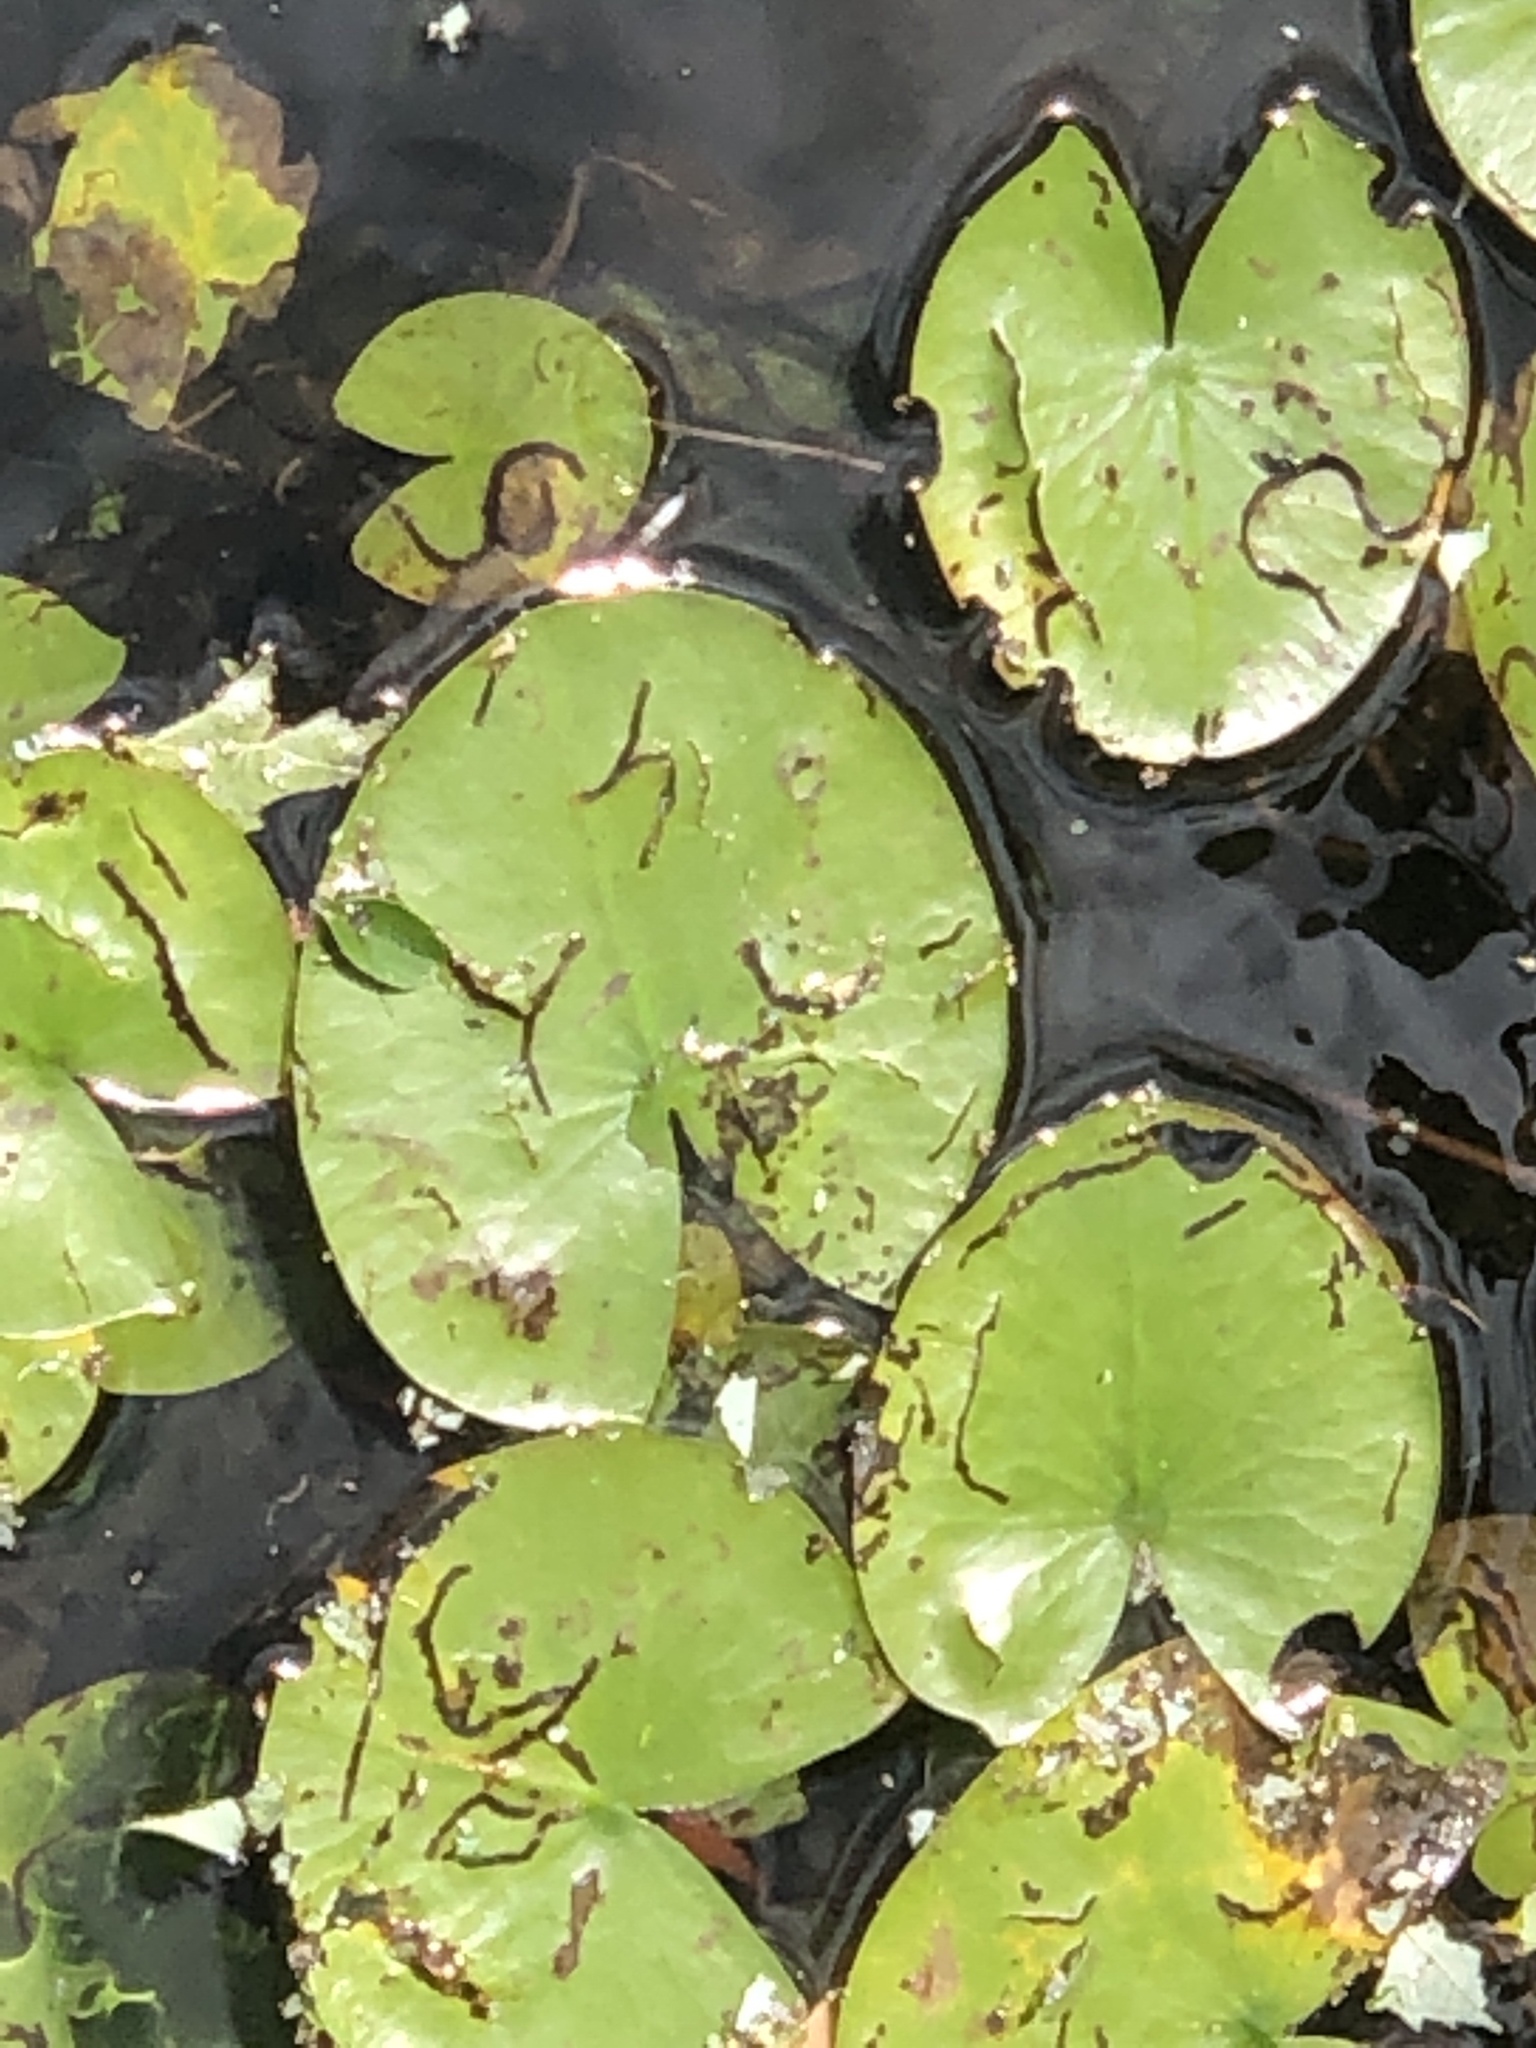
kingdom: Plantae
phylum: Tracheophyta
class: Magnoliopsida
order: Nymphaeales
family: Nymphaeaceae
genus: Nymphaea
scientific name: Nymphaea odorata
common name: Fragrant water-lily
